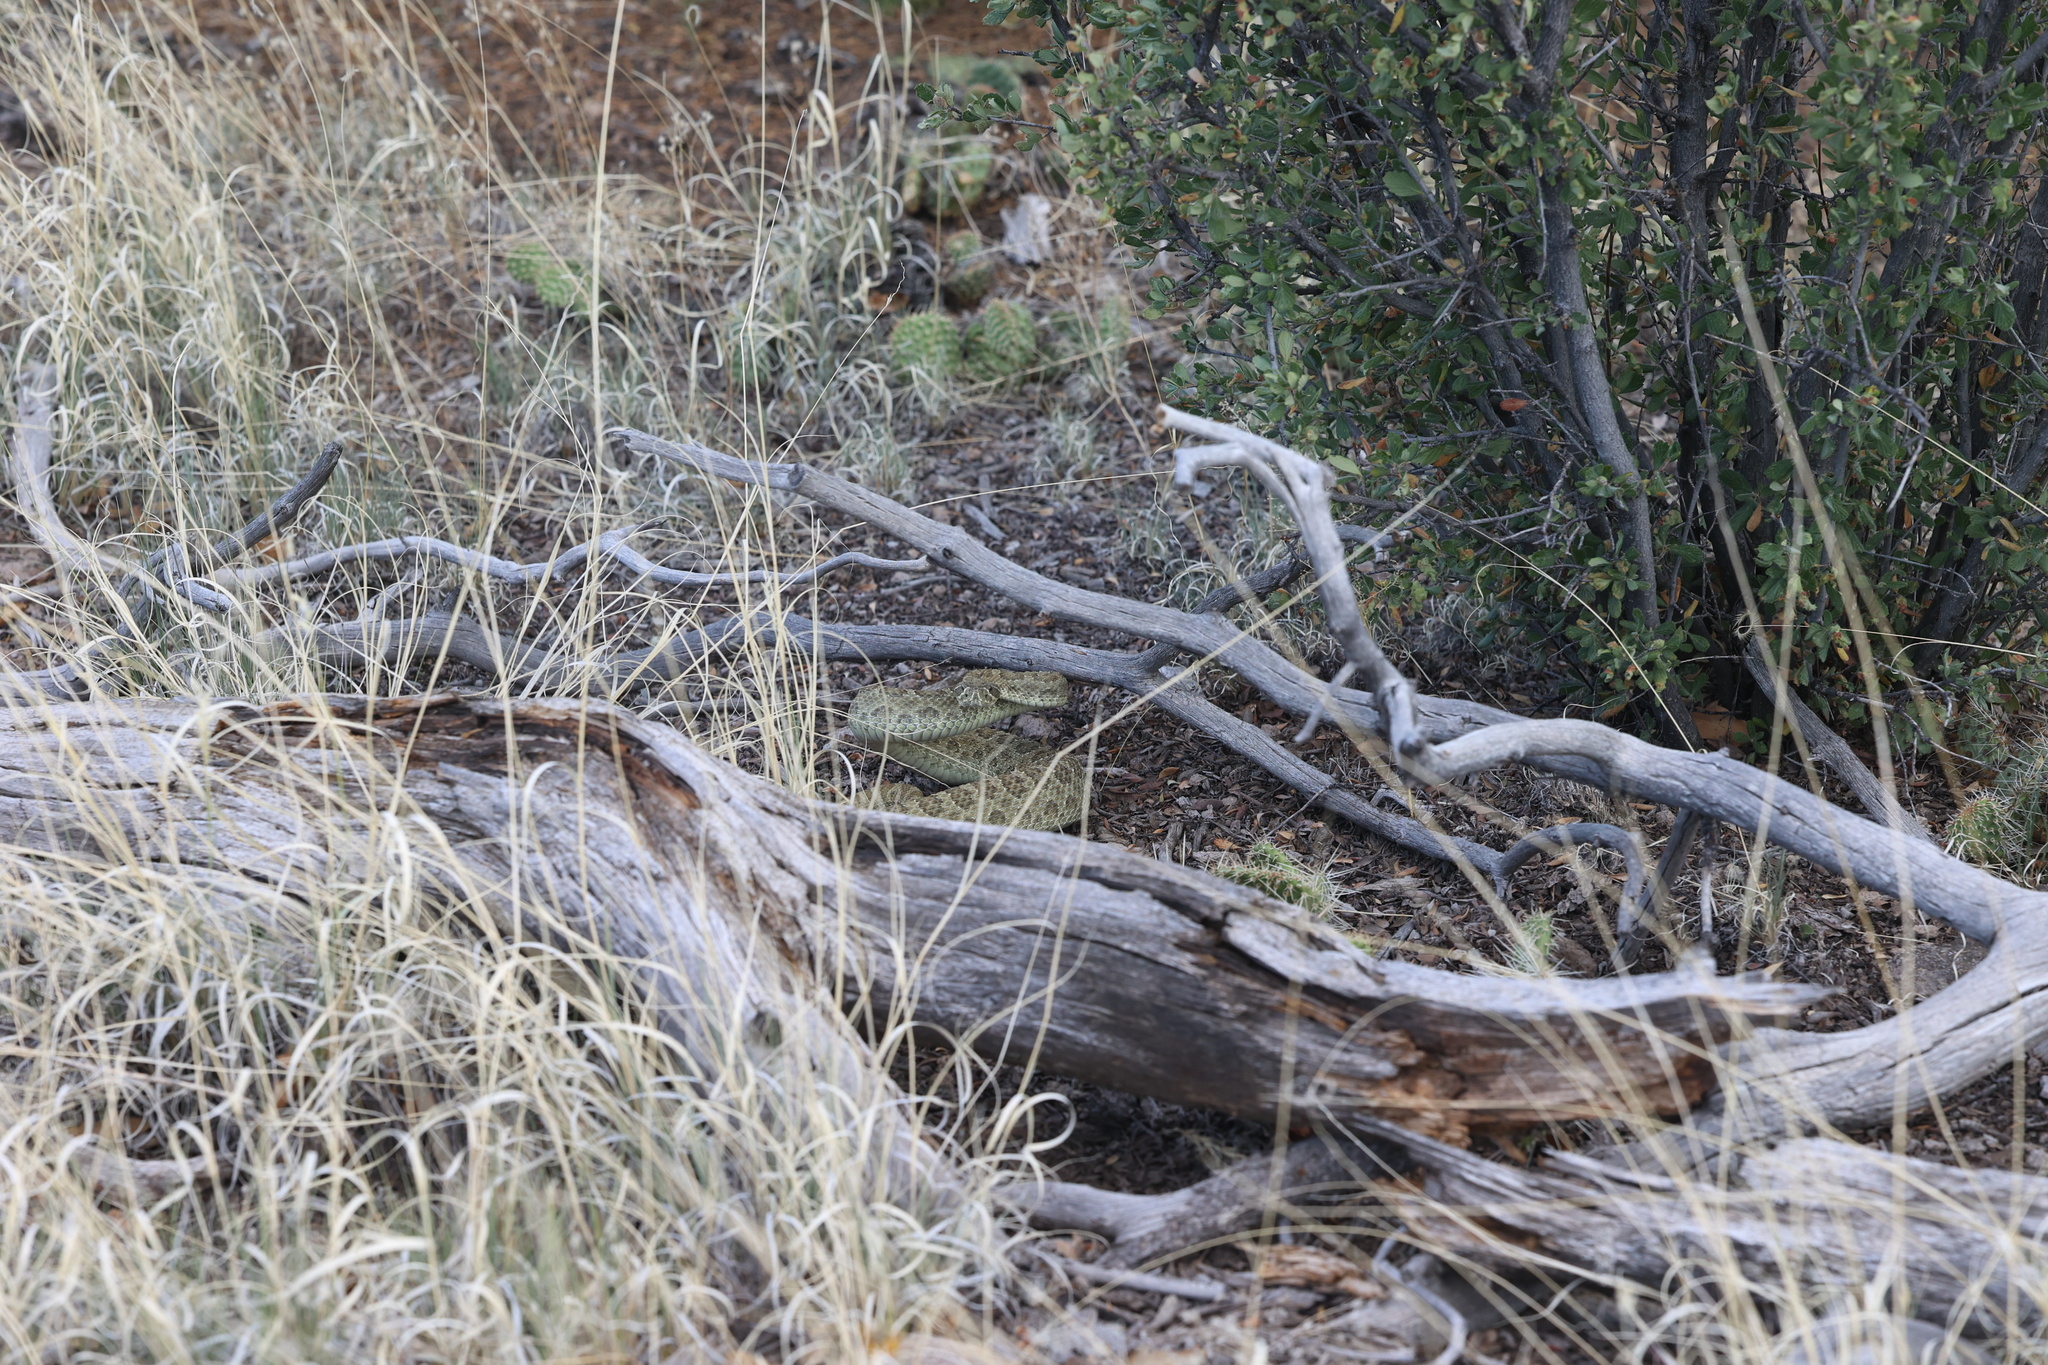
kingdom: Animalia
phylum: Chordata
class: Squamata
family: Viperidae
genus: Crotalus
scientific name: Crotalus viridis
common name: Prairie rattlesnake
